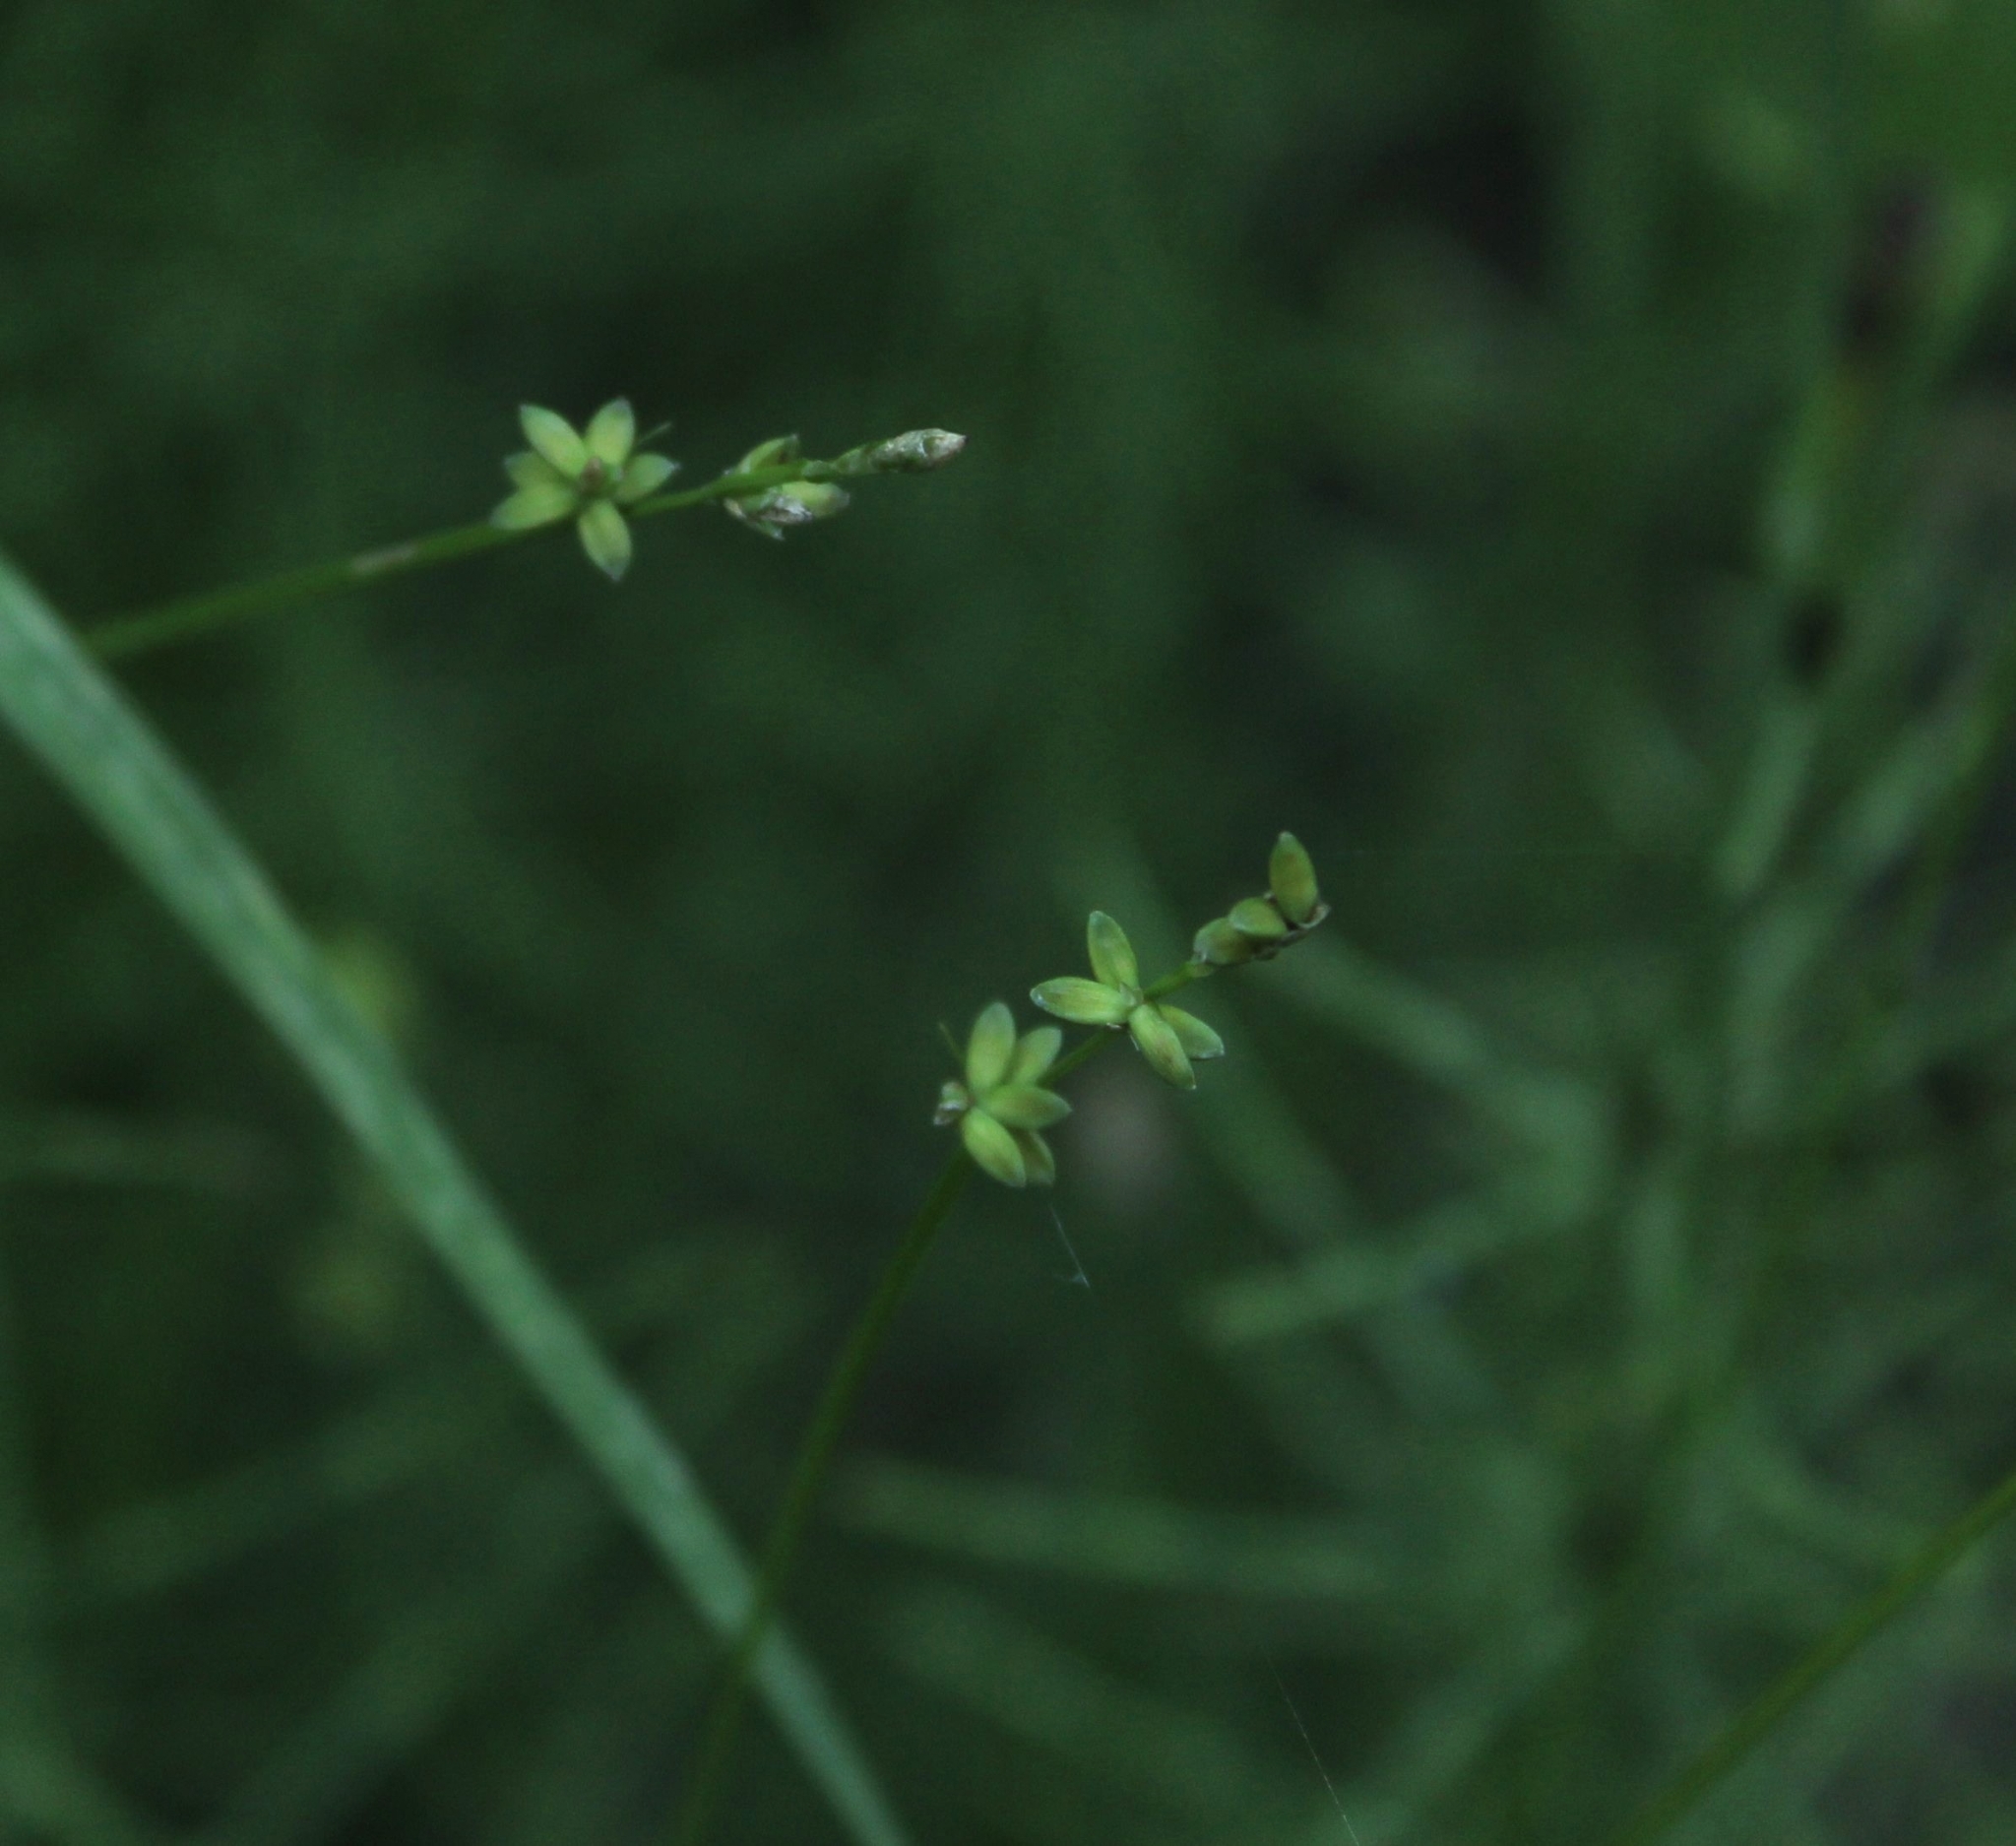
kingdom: Plantae
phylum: Tracheophyta
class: Liliopsida
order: Poales
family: Cyperaceae
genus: Carex
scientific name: Carex loliacea
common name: Ryegrass sedge
